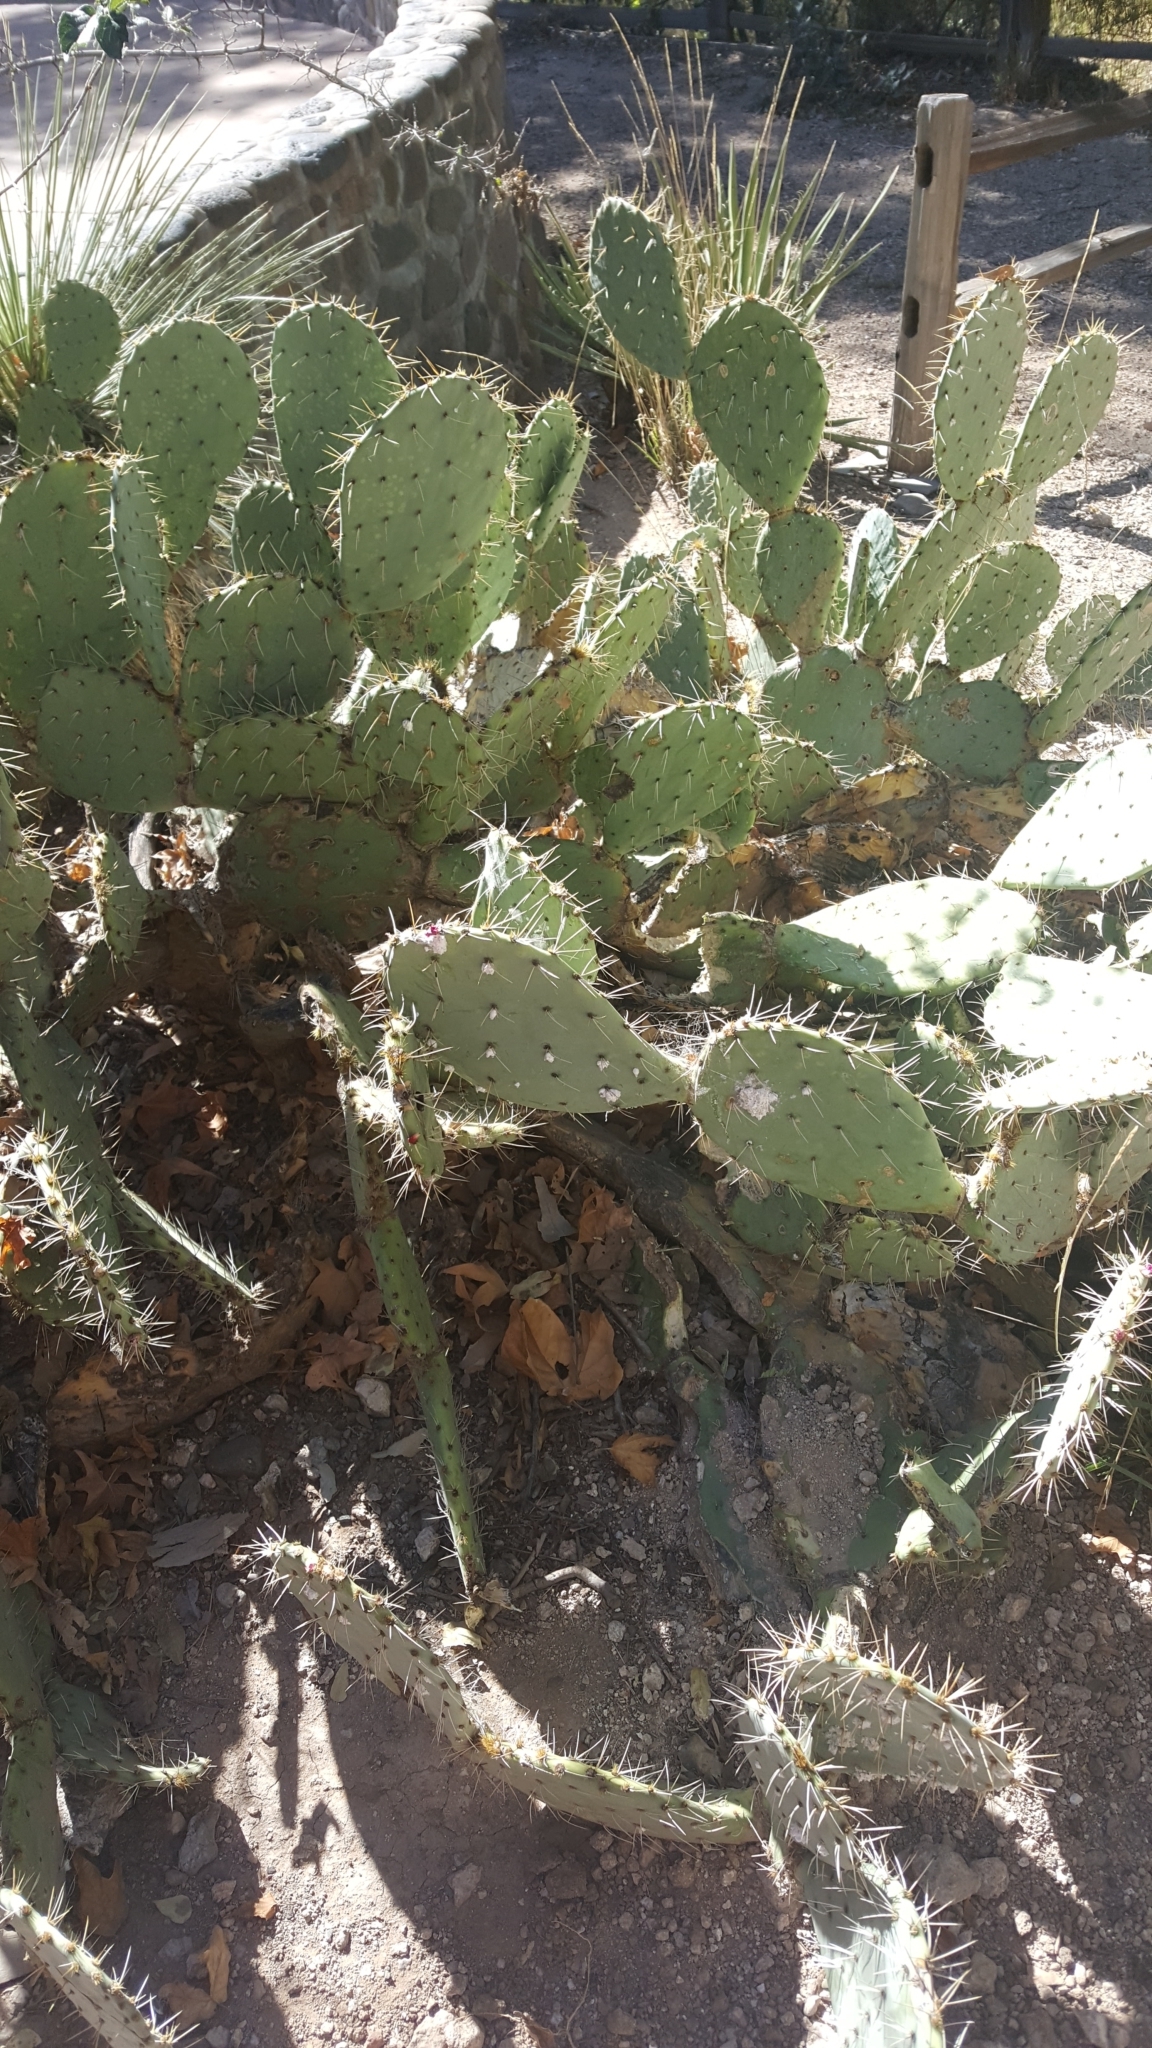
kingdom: Plantae
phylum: Tracheophyta
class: Magnoliopsida
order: Caryophyllales
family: Cactaceae
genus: Opuntia
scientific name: Opuntia engelmannii
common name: Cactus-apple
